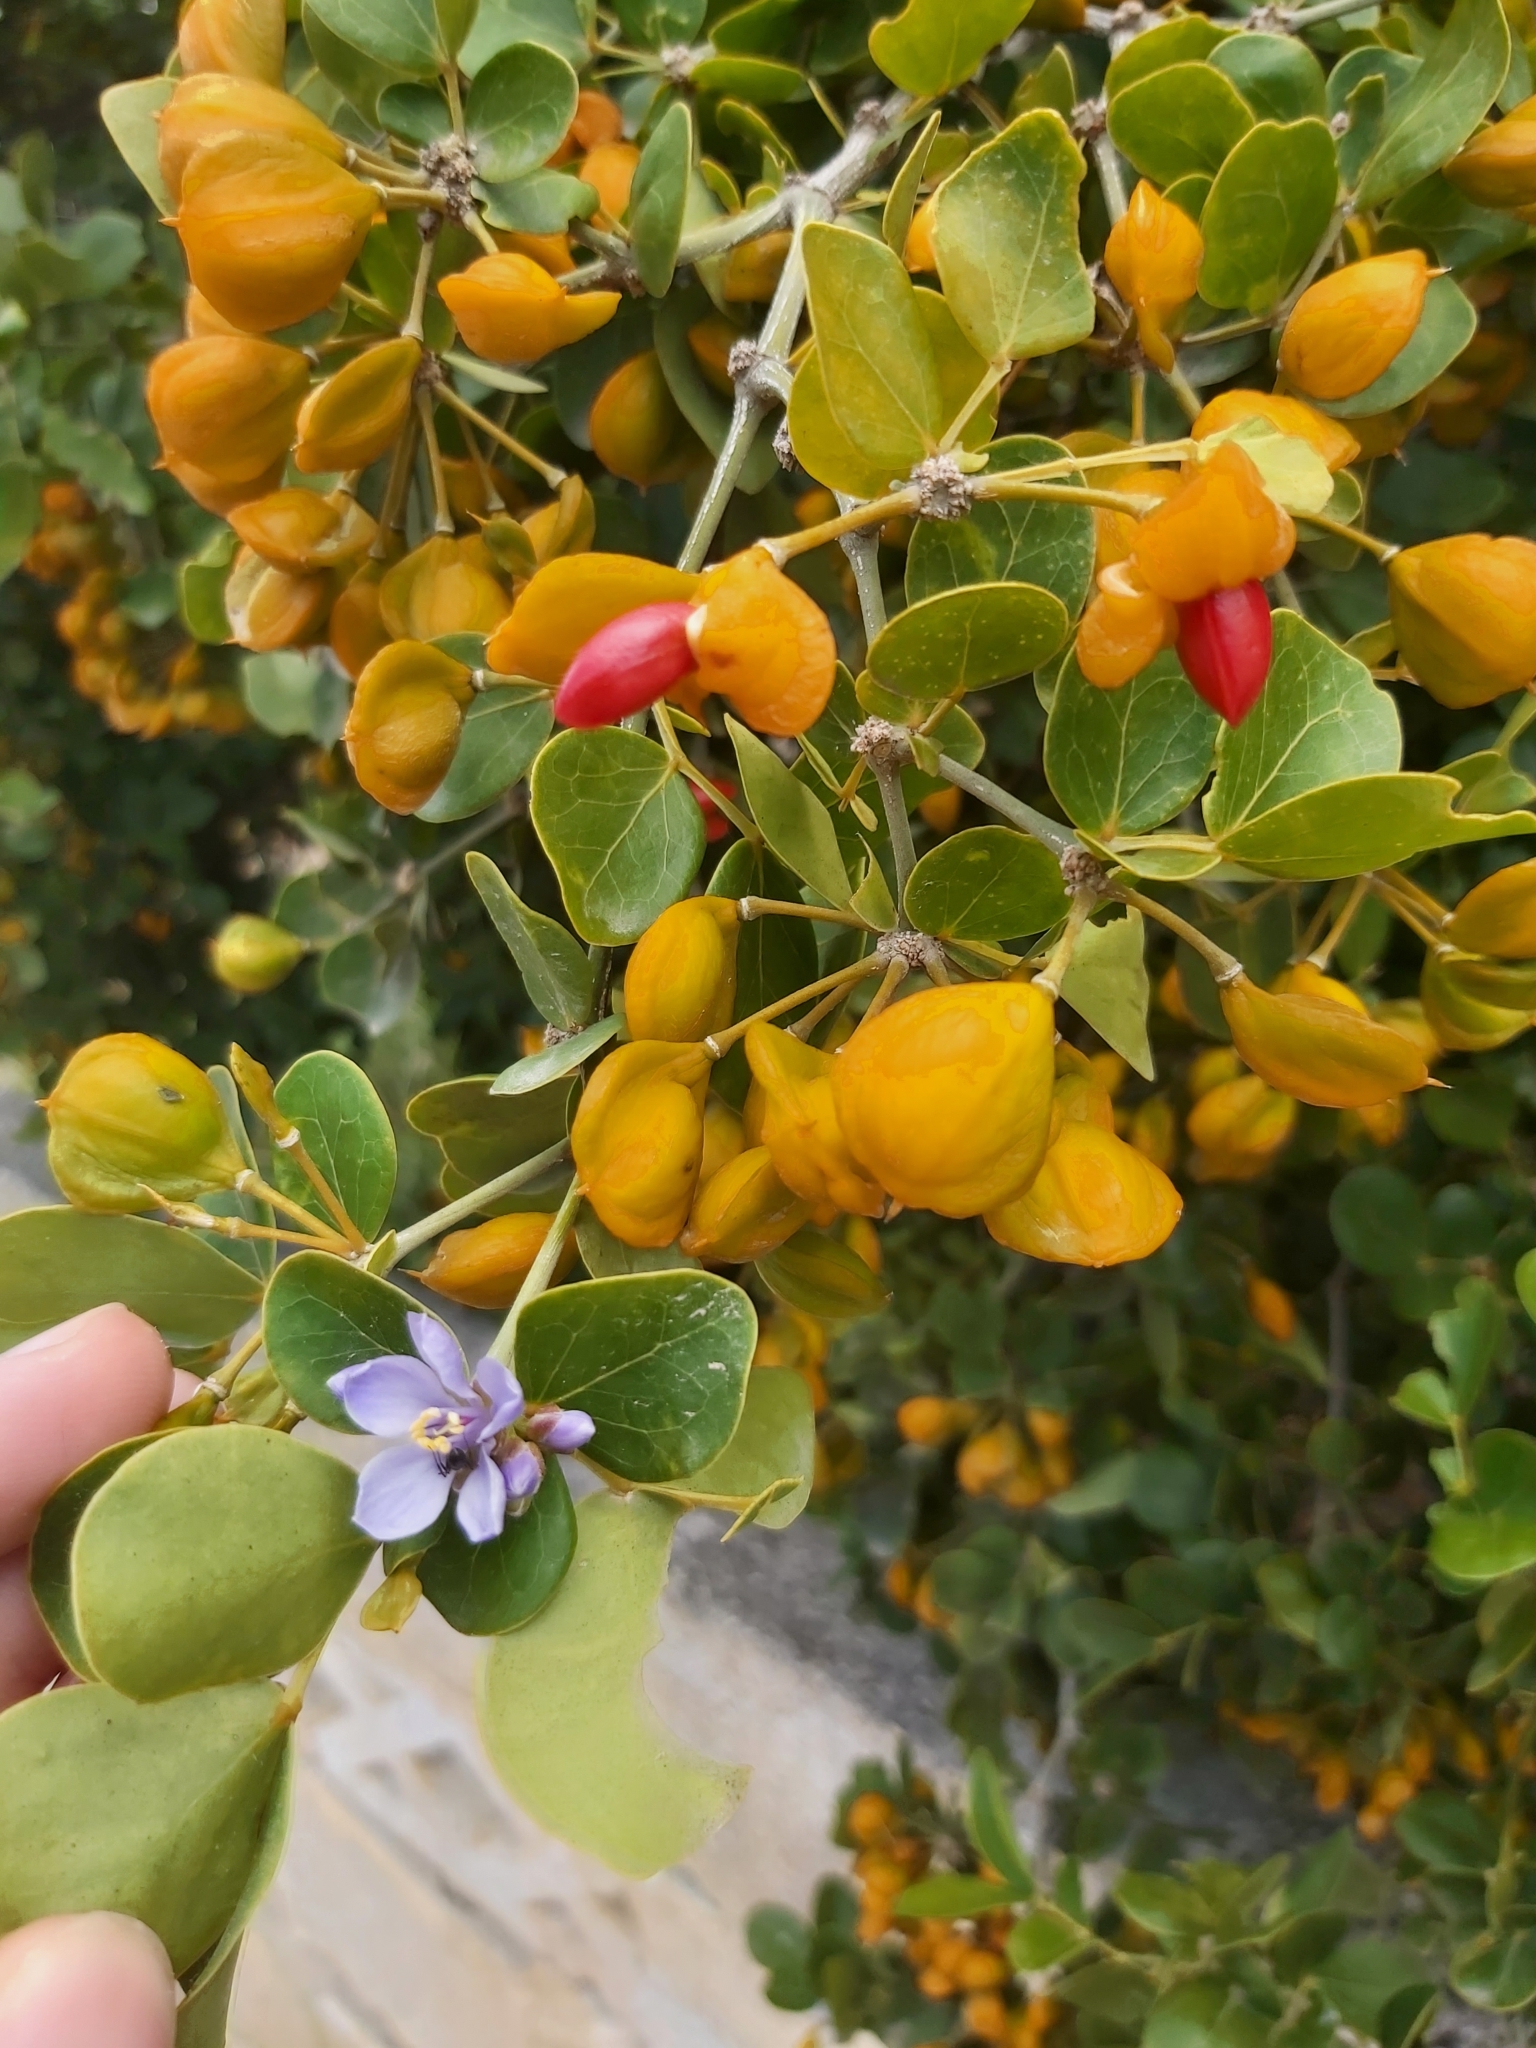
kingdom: Plantae
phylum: Tracheophyta
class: Magnoliopsida
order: Zygophyllales
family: Zygophyllaceae
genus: Guaiacum
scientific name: Guaiacum officinale
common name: Lignum vitae
